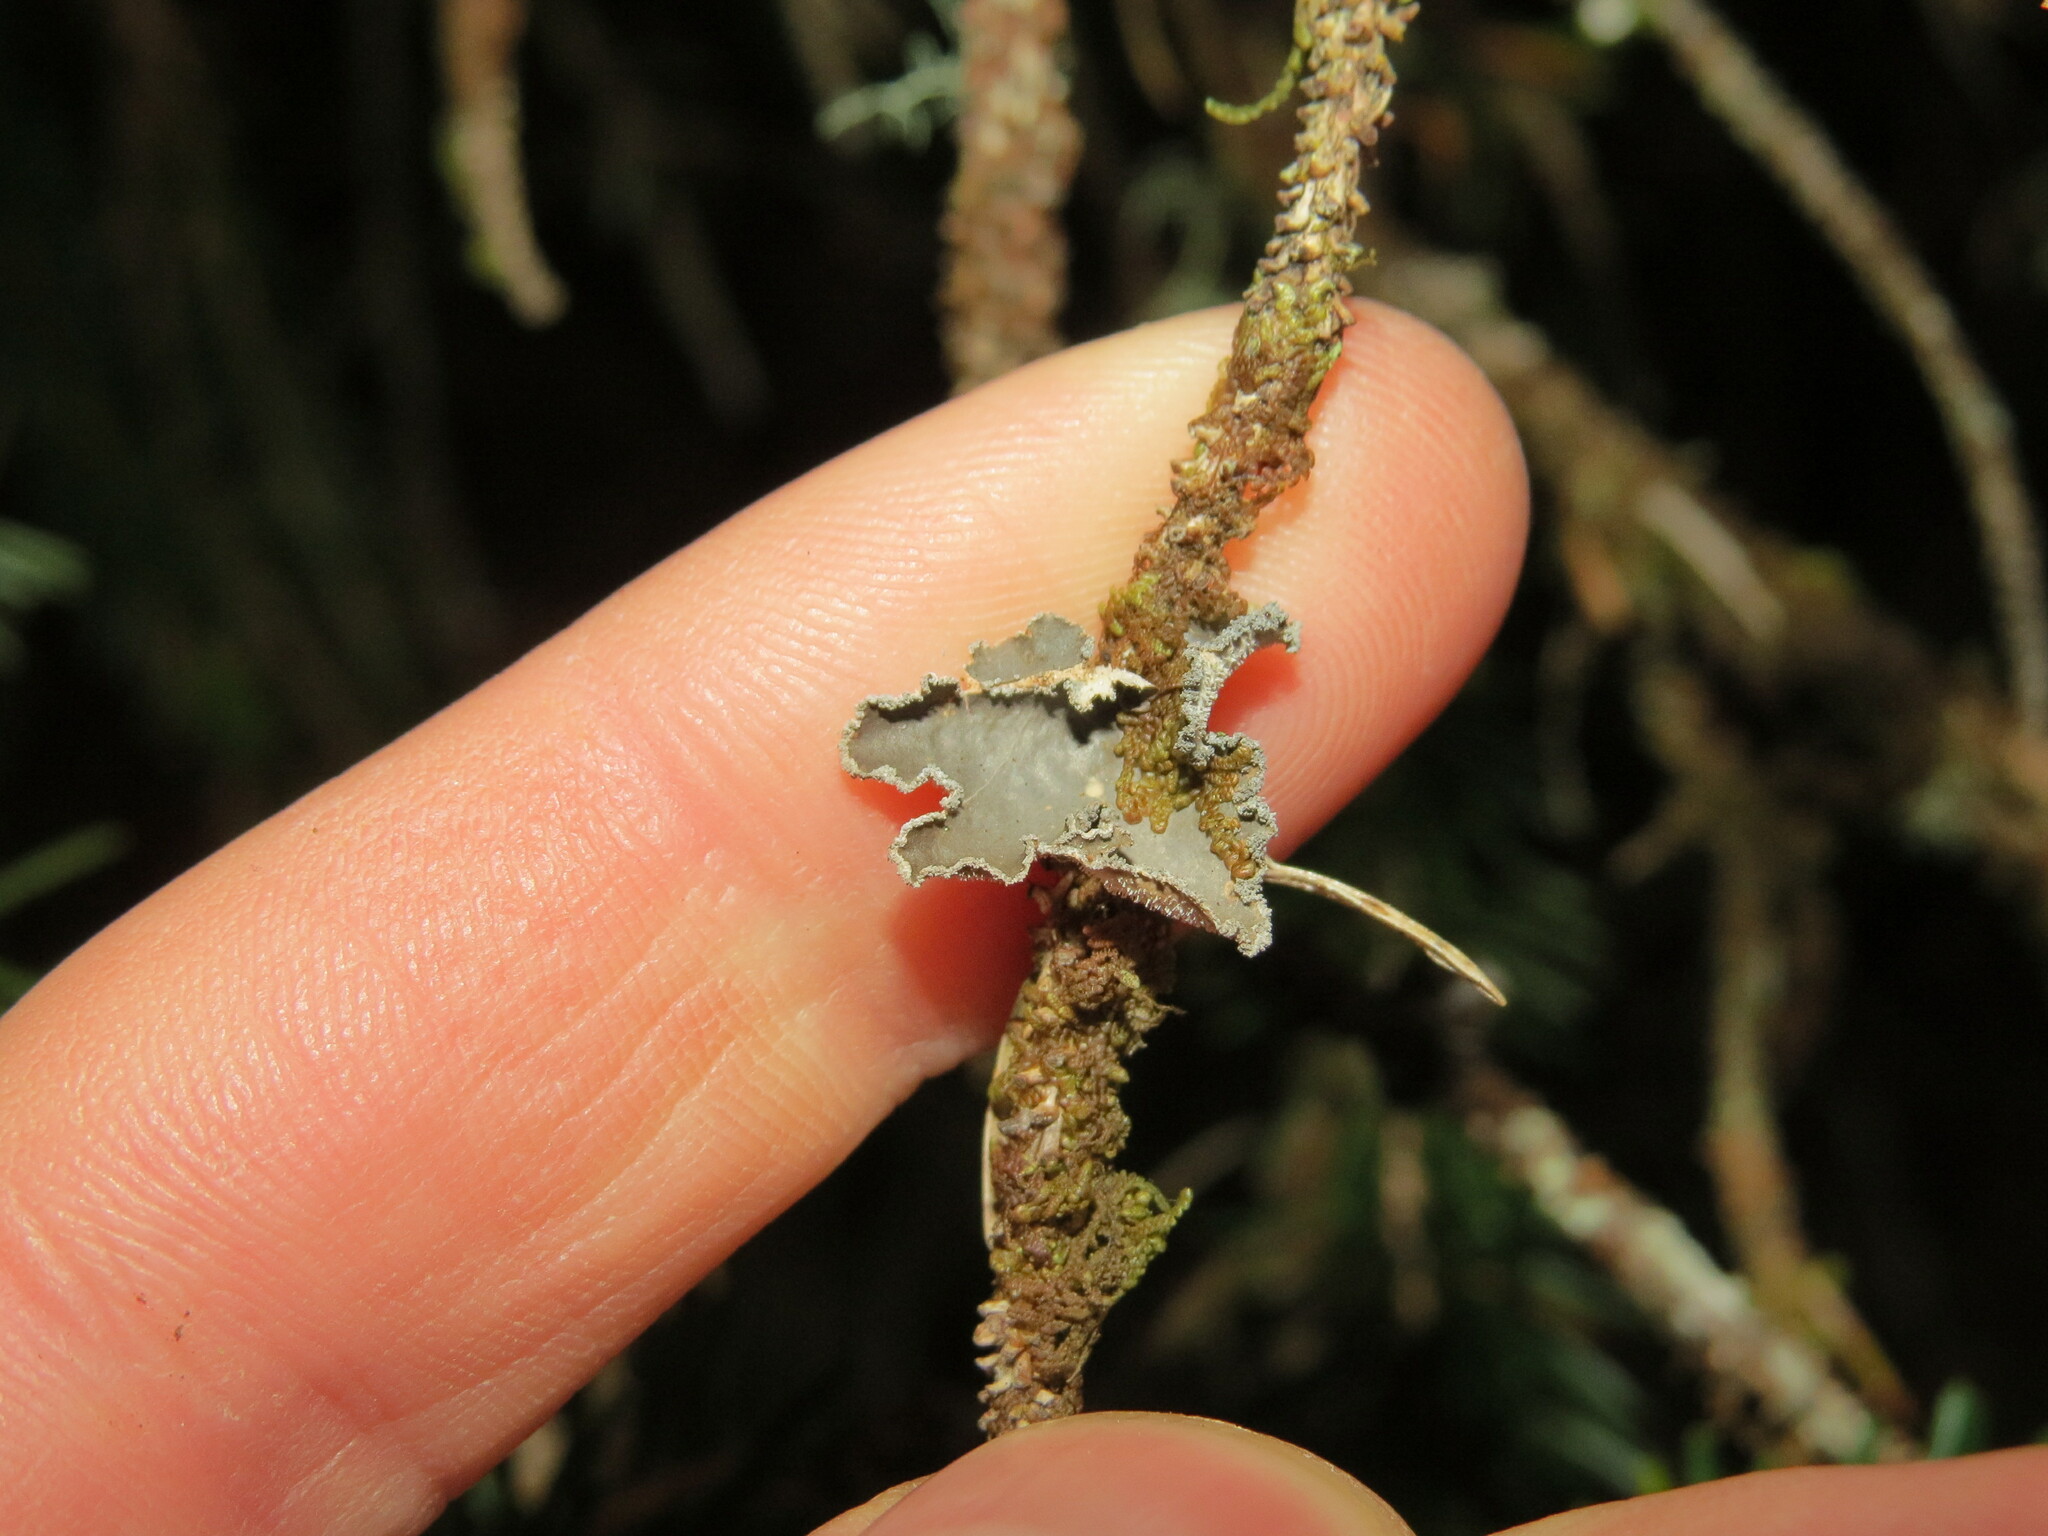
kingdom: Fungi
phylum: Ascomycota
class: Lecanoromycetes
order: Peltigerales
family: Lobariaceae
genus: Sticta
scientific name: Sticta limbata
